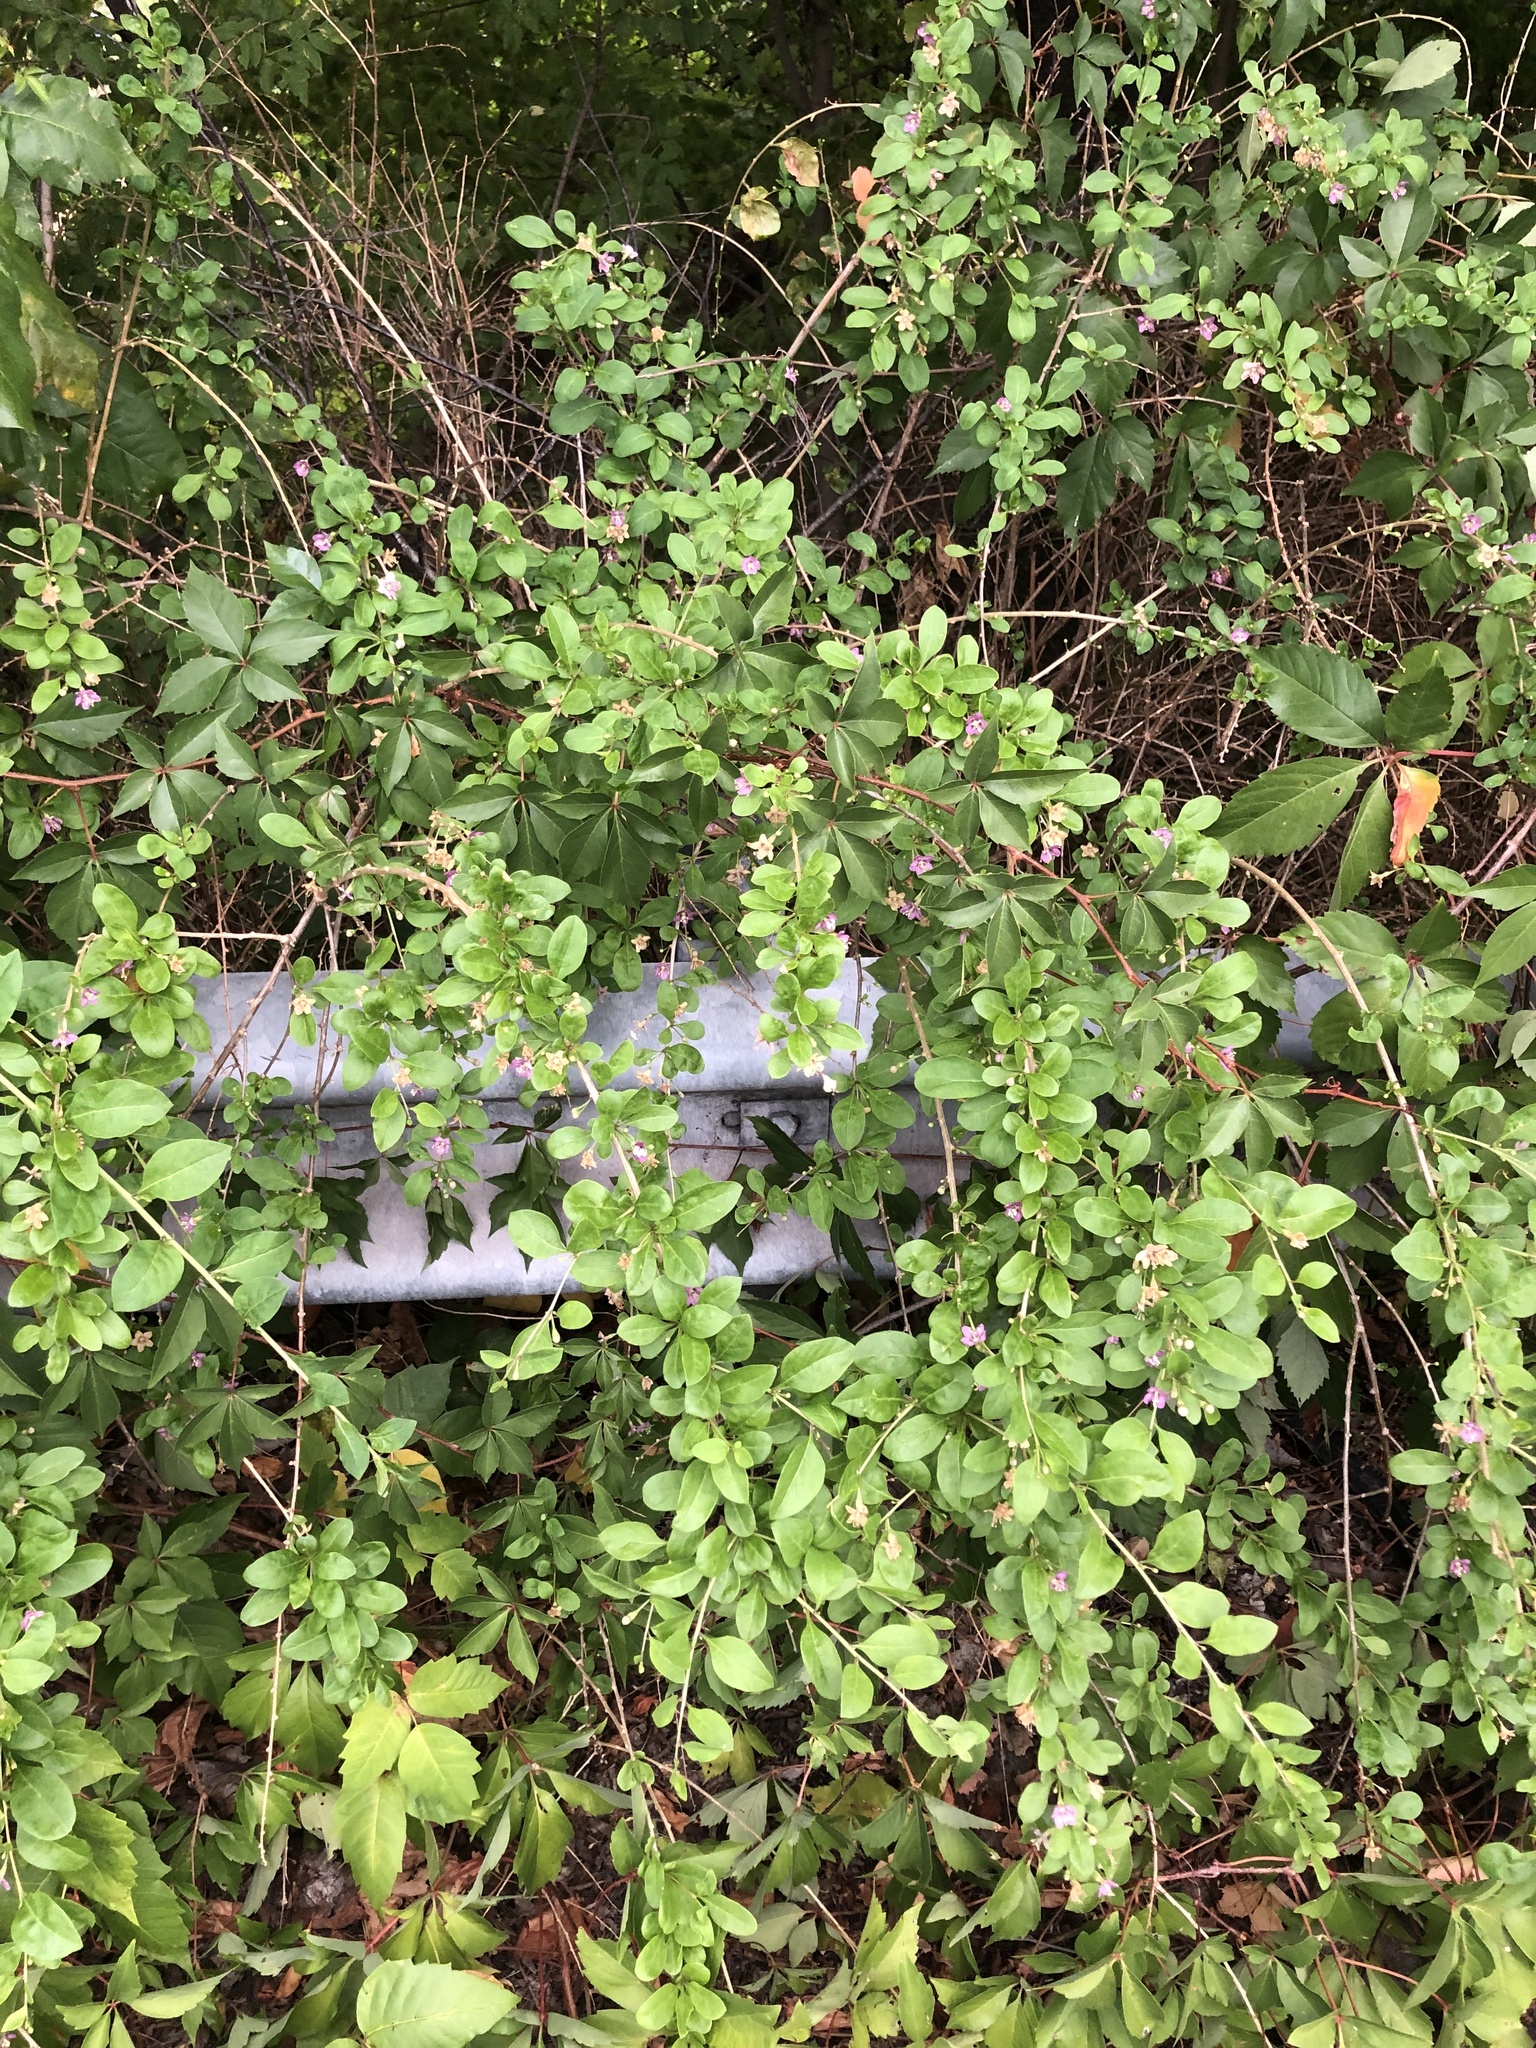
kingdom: Plantae
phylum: Tracheophyta
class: Magnoliopsida
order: Solanales
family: Solanaceae
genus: Lycium
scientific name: Lycium barbarum
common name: Duke of argyll's teaplant
